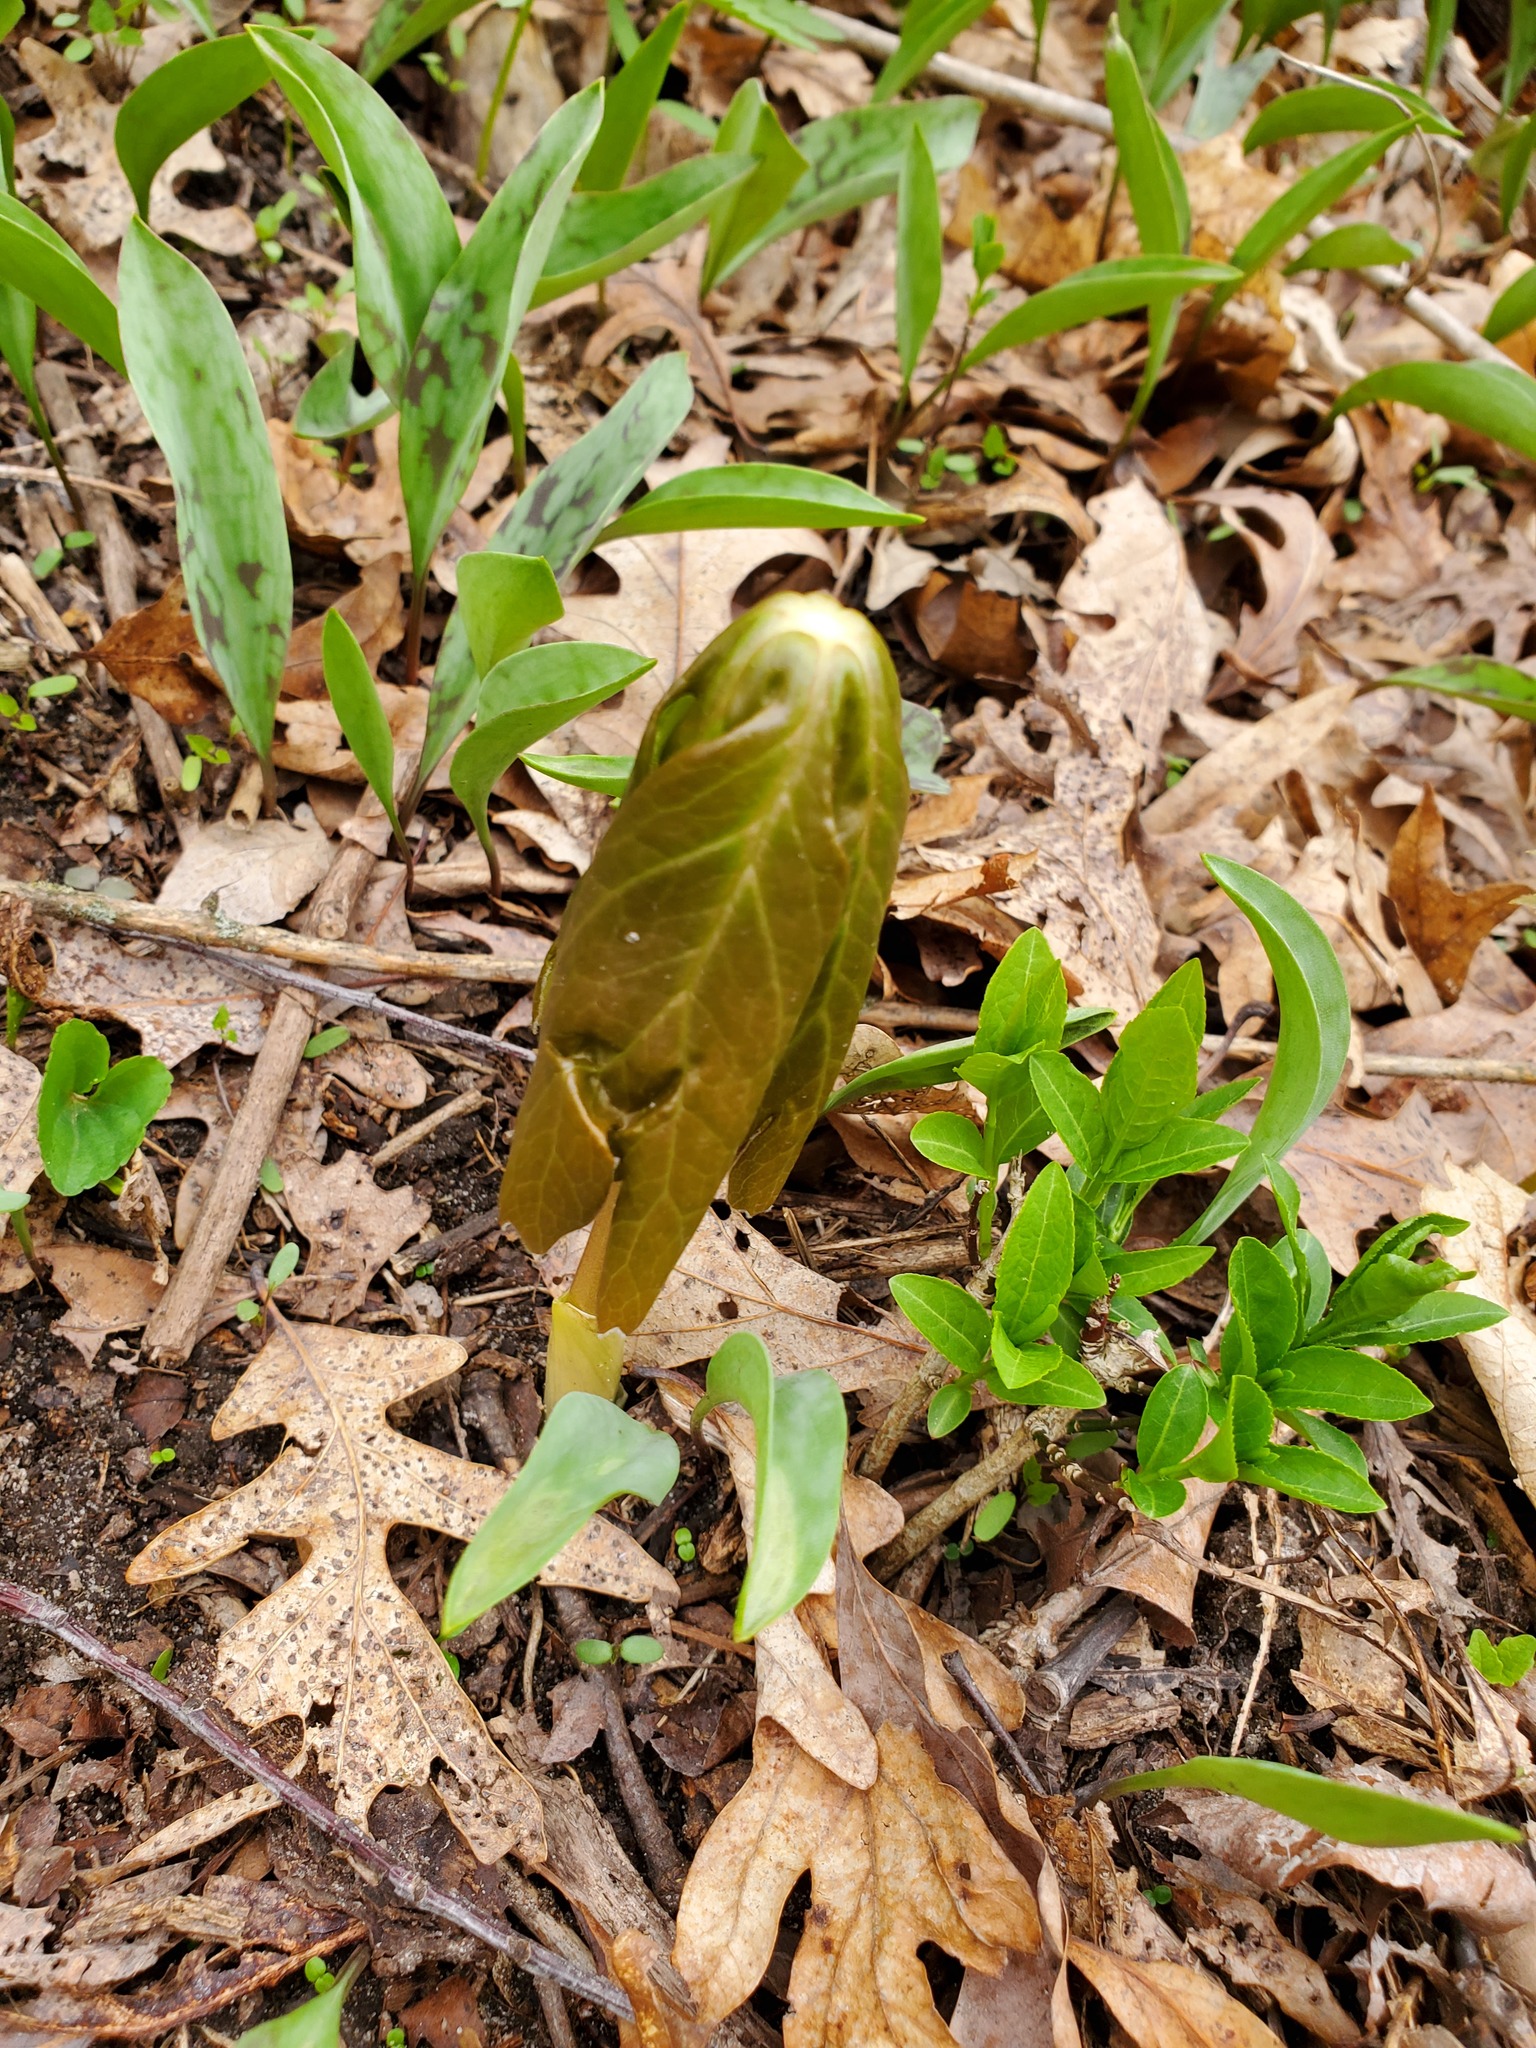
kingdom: Plantae
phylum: Tracheophyta
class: Magnoliopsida
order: Ranunculales
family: Berberidaceae
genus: Podophyllum
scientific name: Podophyllum peltatum
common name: Wild mandrake
